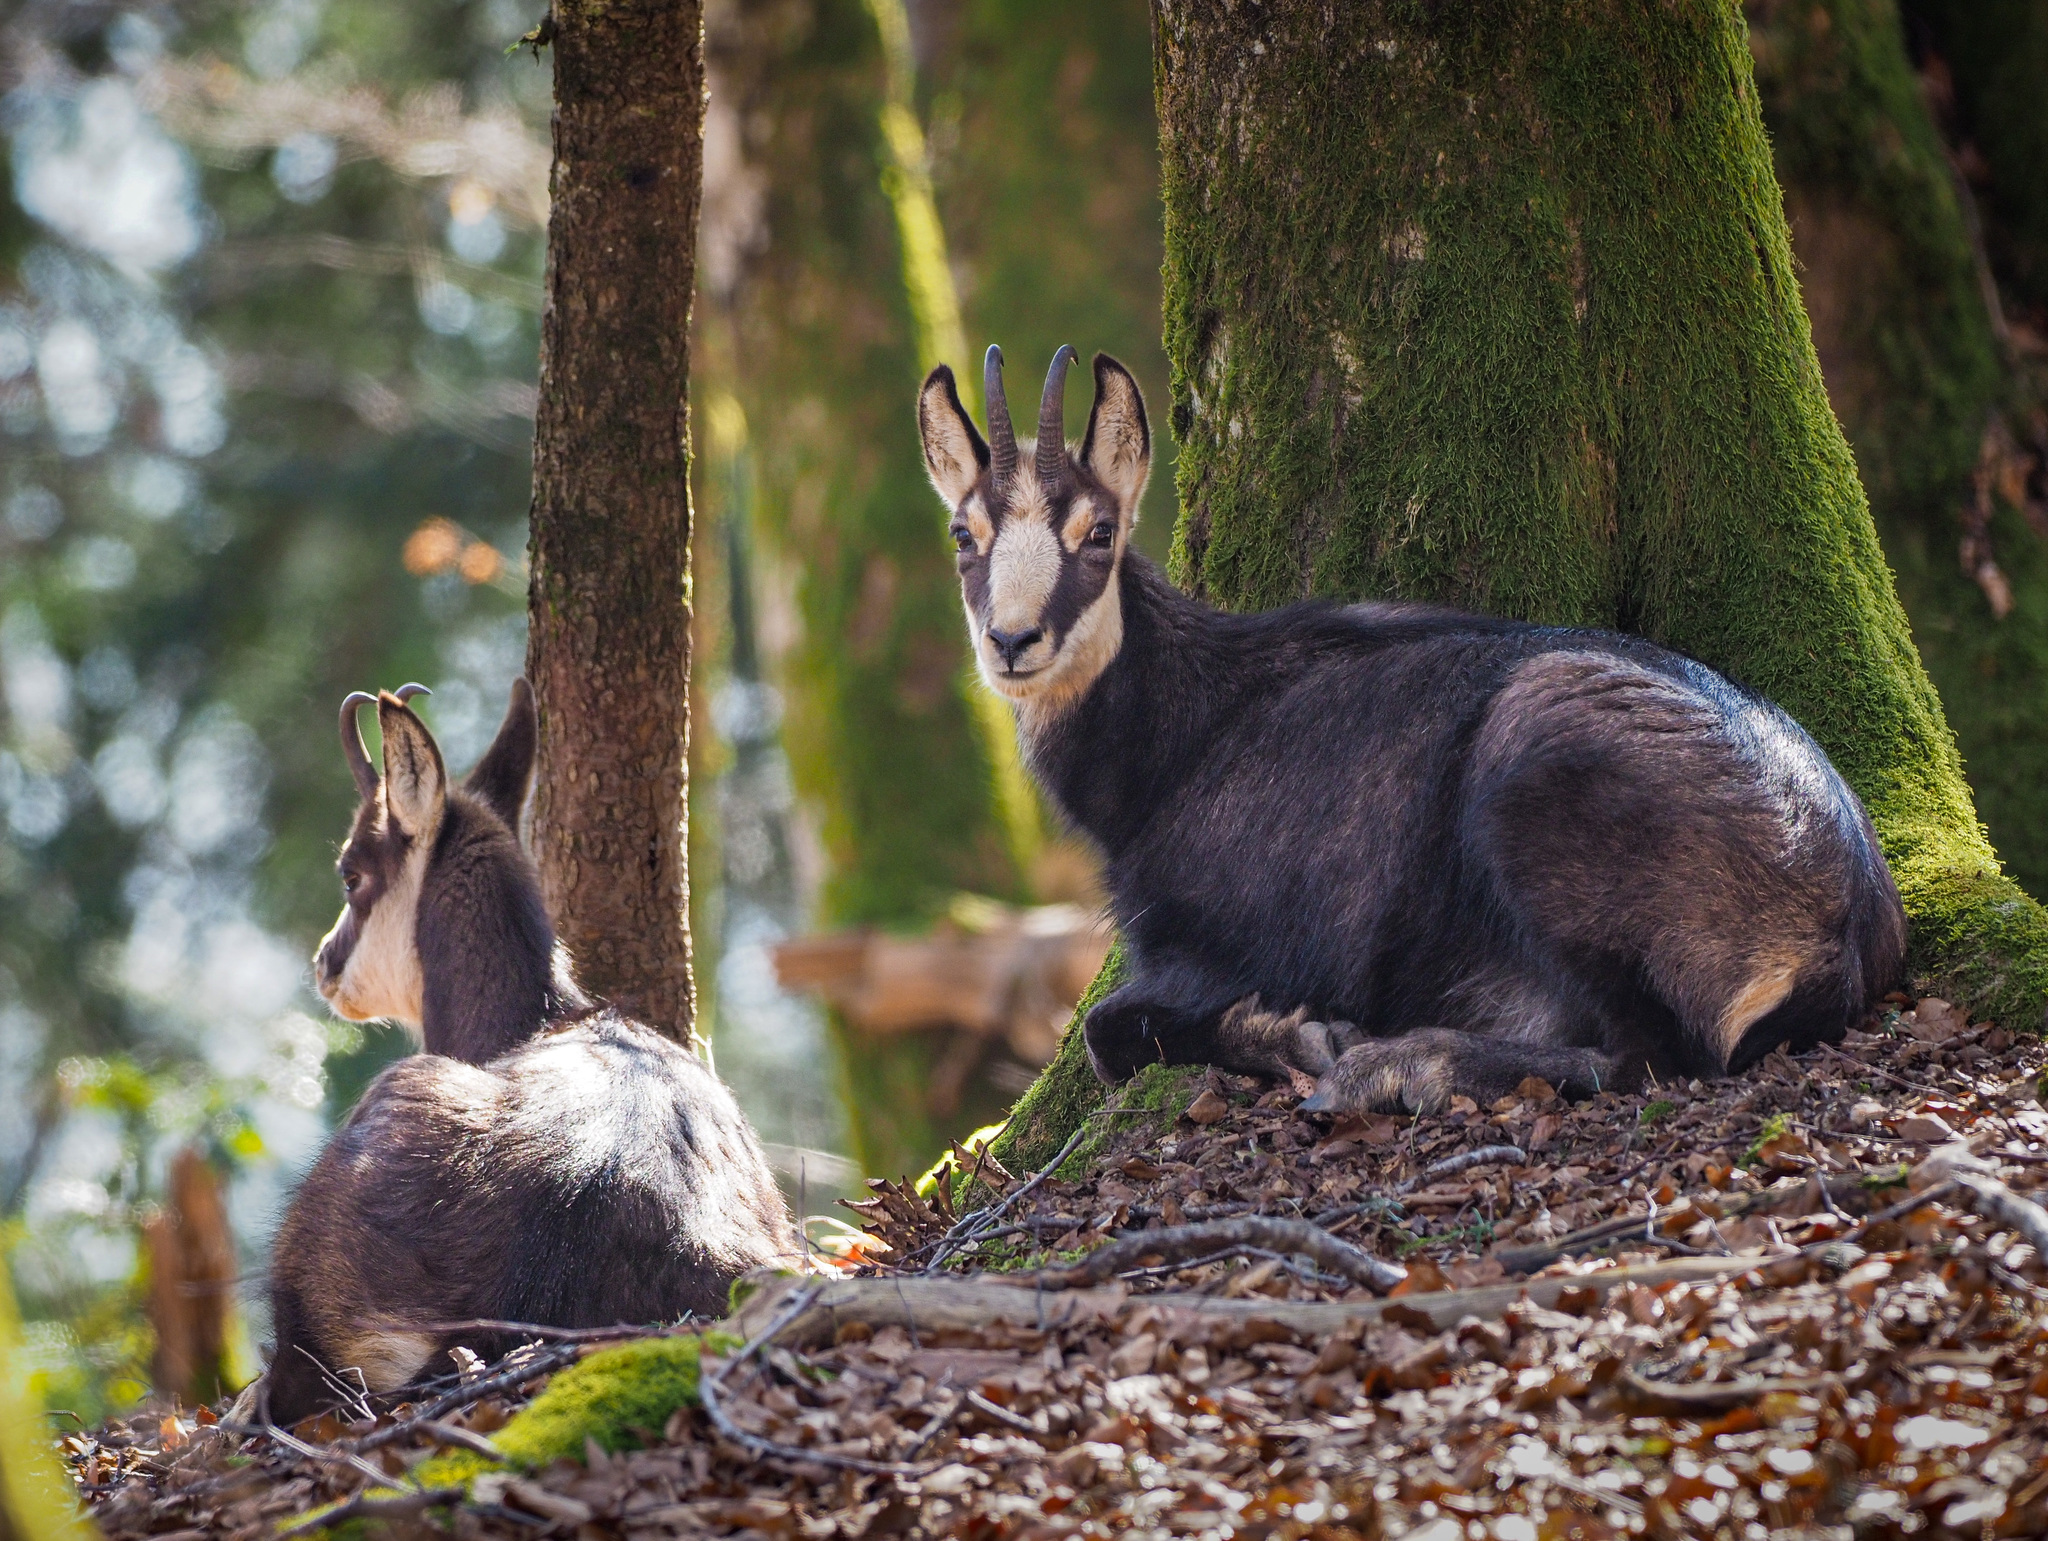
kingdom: Animalia
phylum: Chordata
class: Mammalia
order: Artiodactyla
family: Bovidae
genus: Rupicapra
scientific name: Rupicapra rupicapra
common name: Chamois
